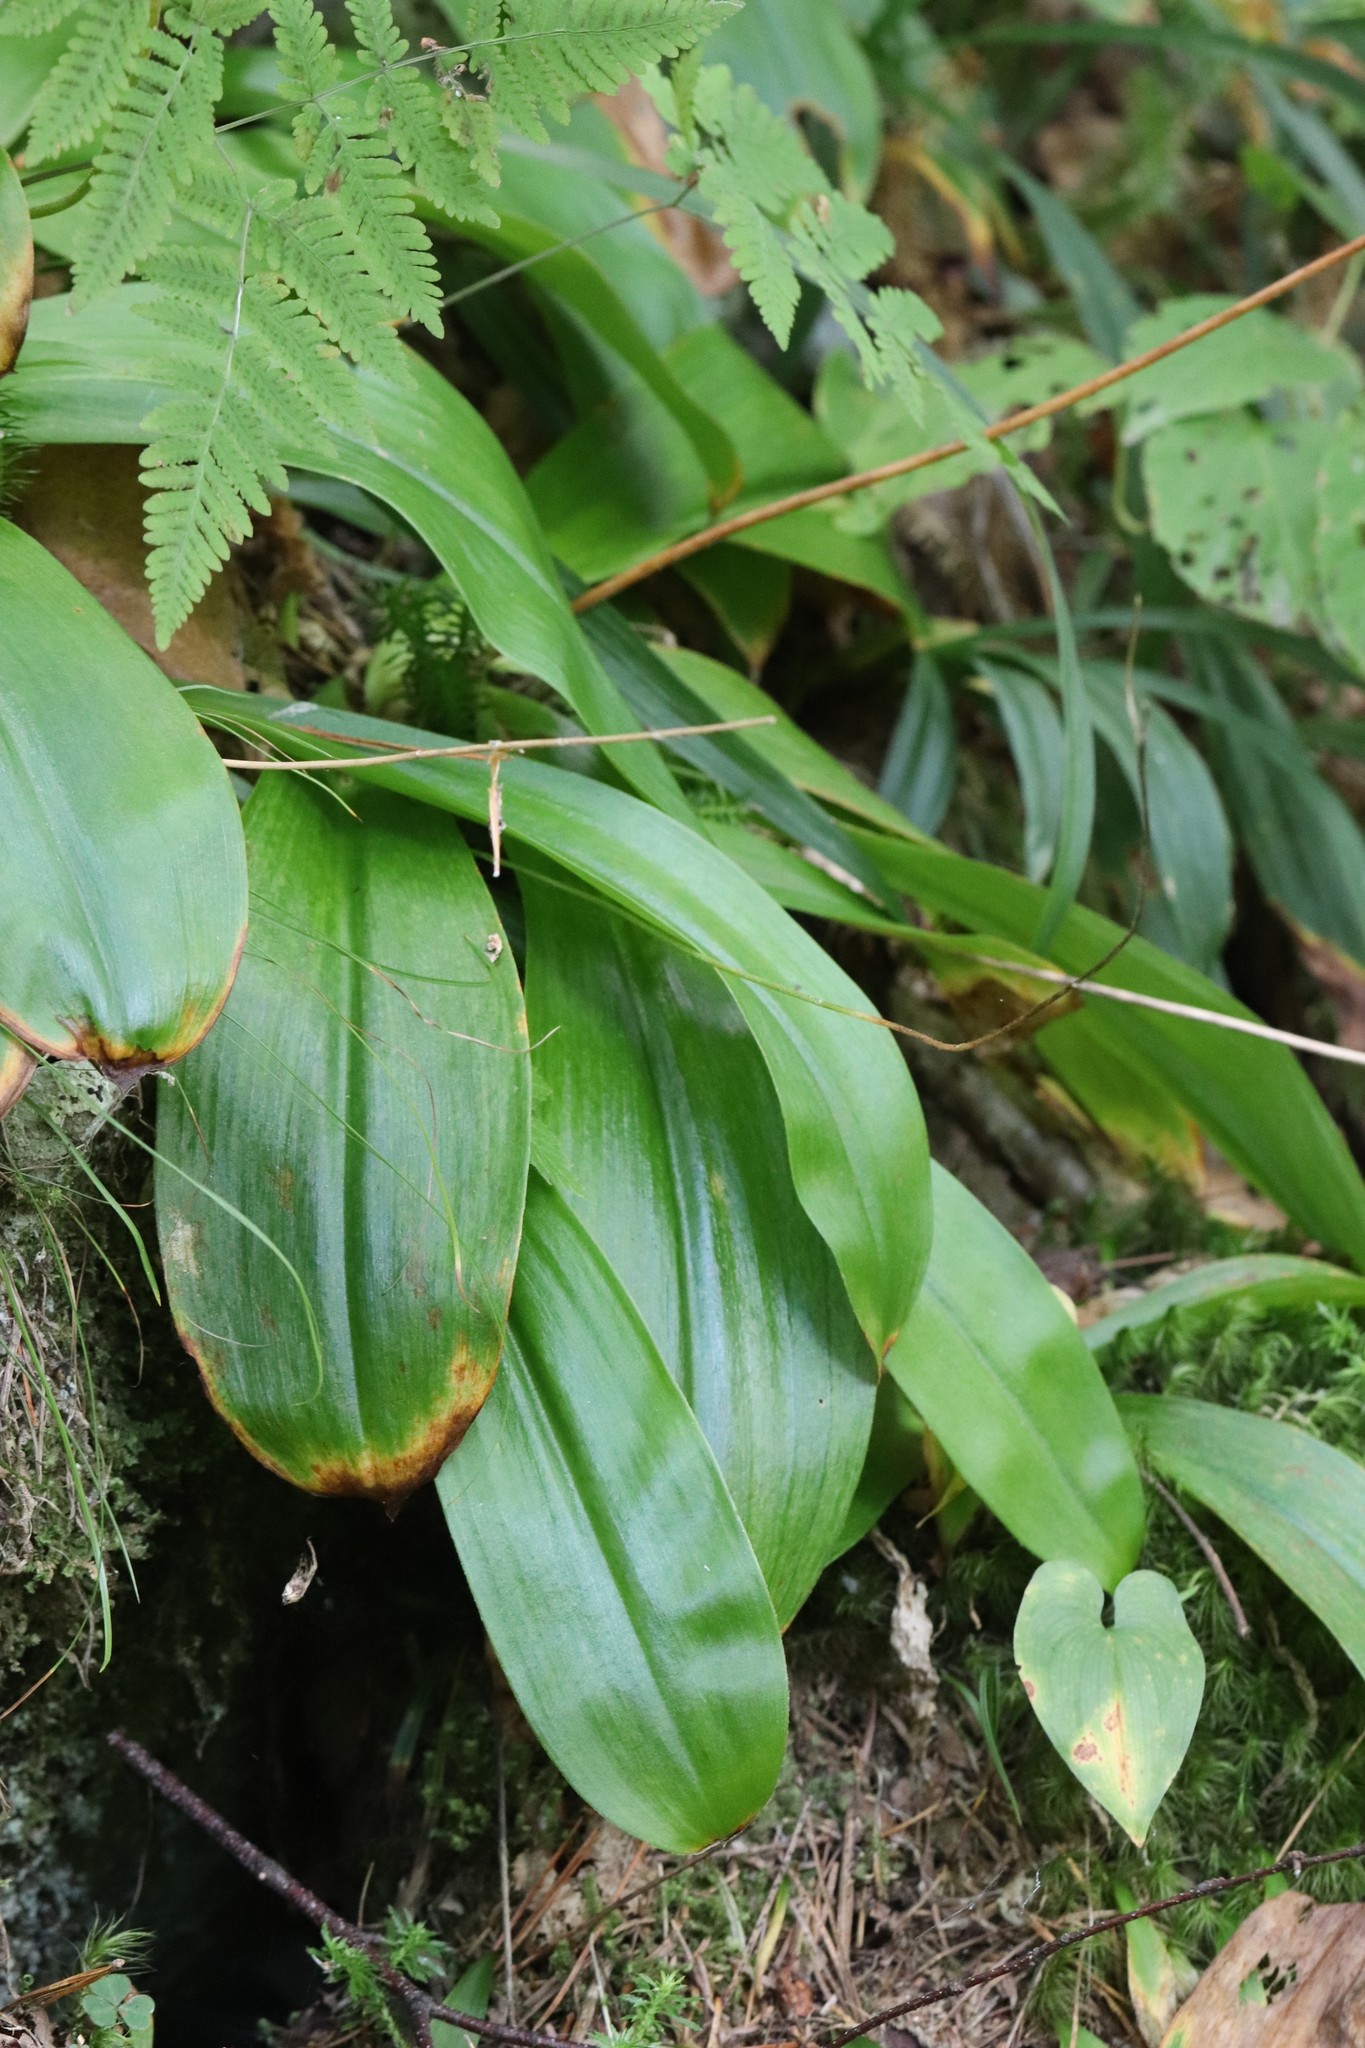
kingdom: Plantae
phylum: Tracheophyta
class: Liliopsida
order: Liliales
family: Liliaceae
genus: Clintonia
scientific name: Clintonia udensis
